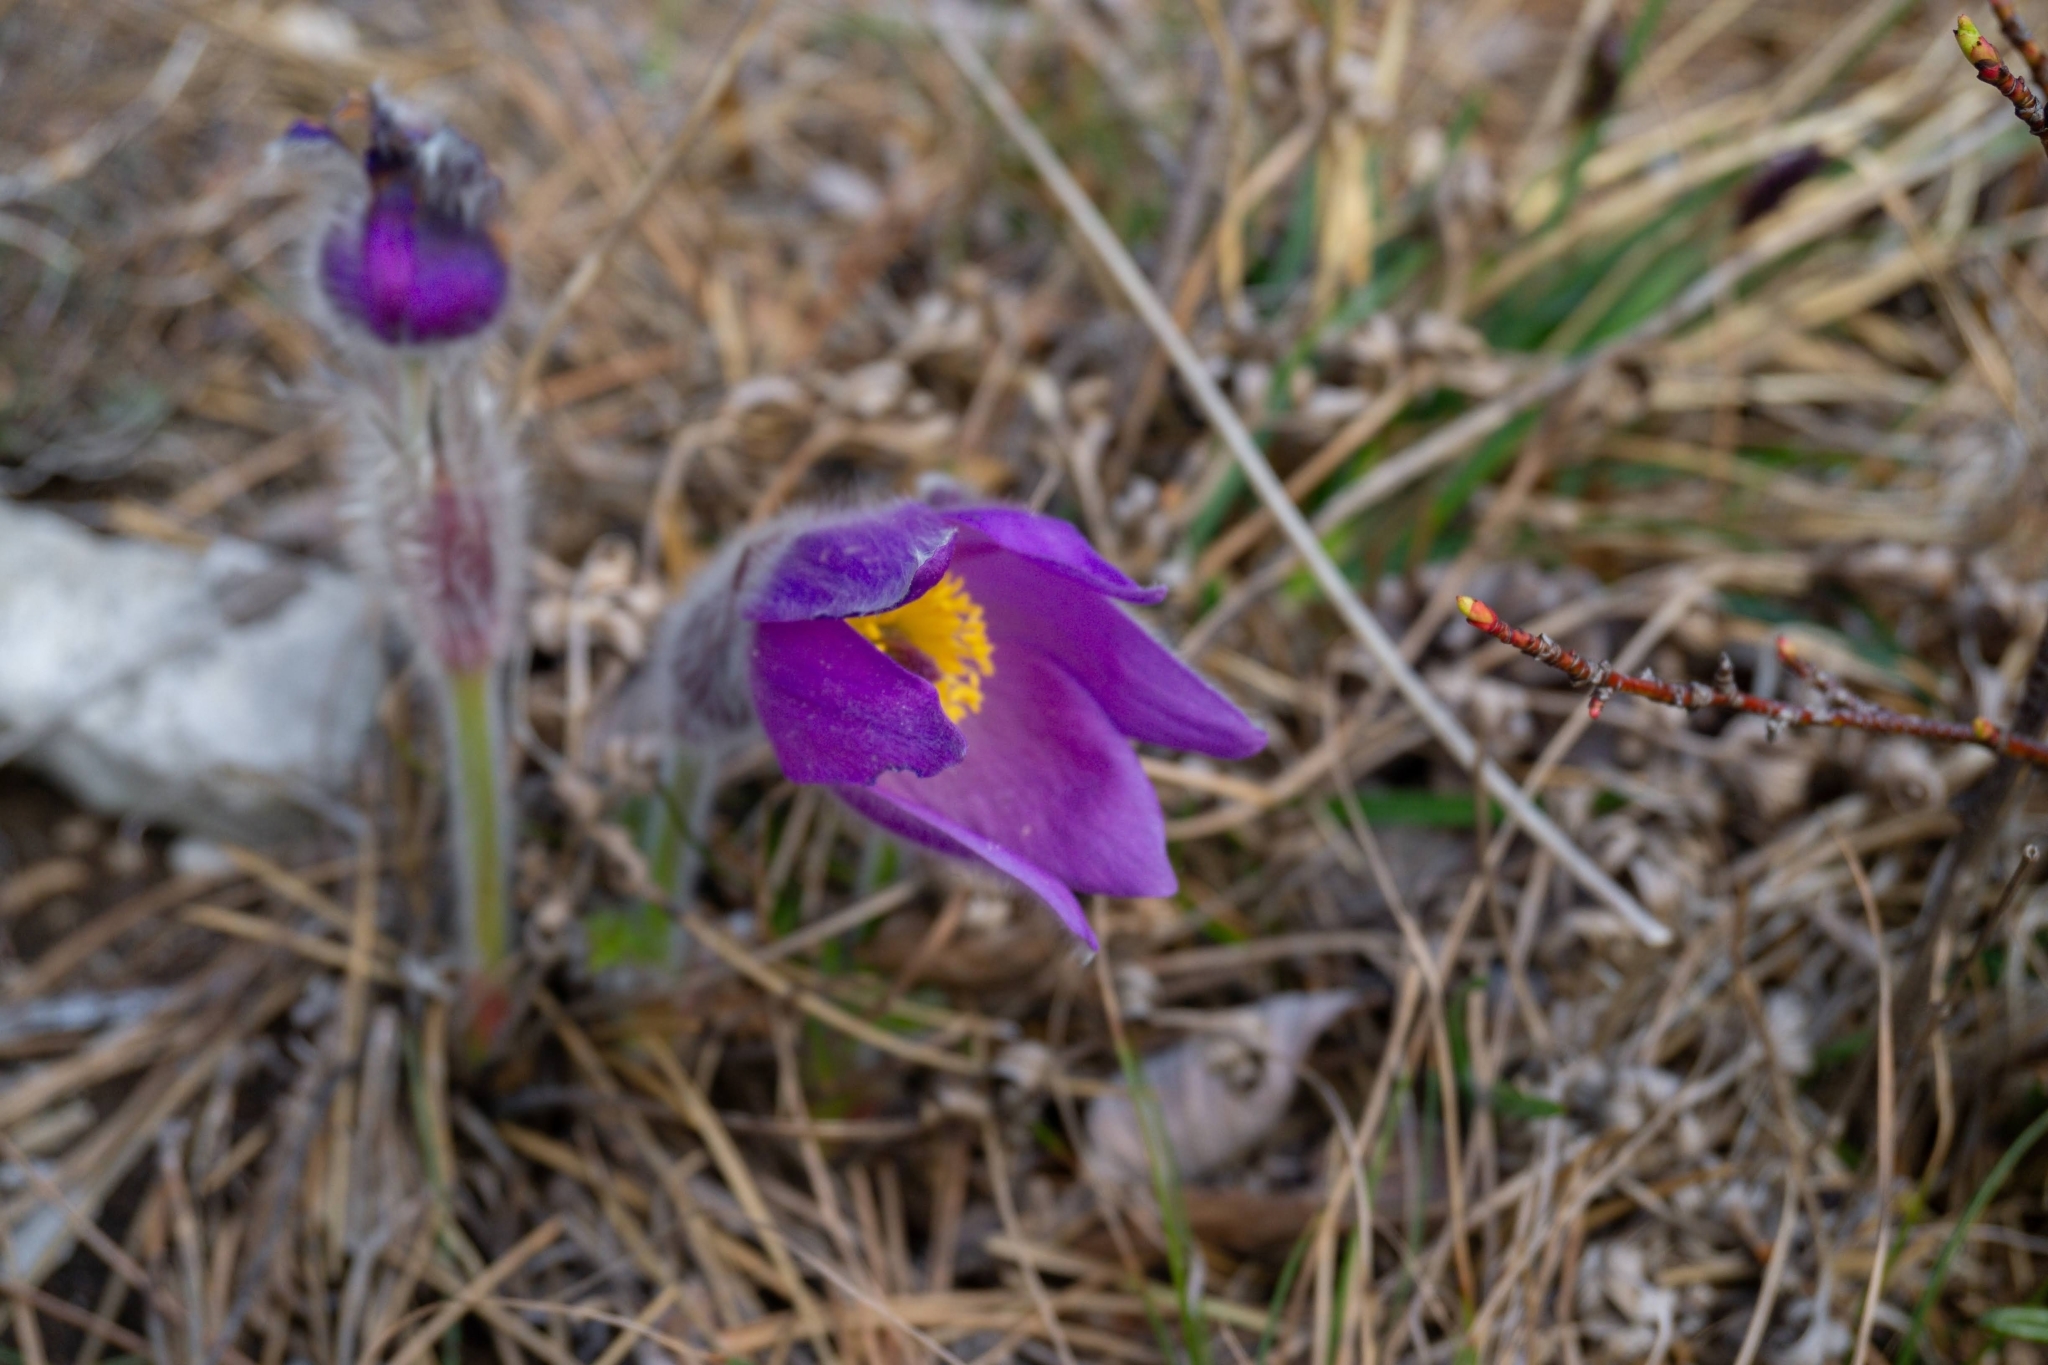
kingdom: Plantae
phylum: Tracheophyta
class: Magnoliopsida
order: Ranunculales
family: Ranunculaceae
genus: Pulsatilla
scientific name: Pulsatilla grandis
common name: Greater pasque flower
